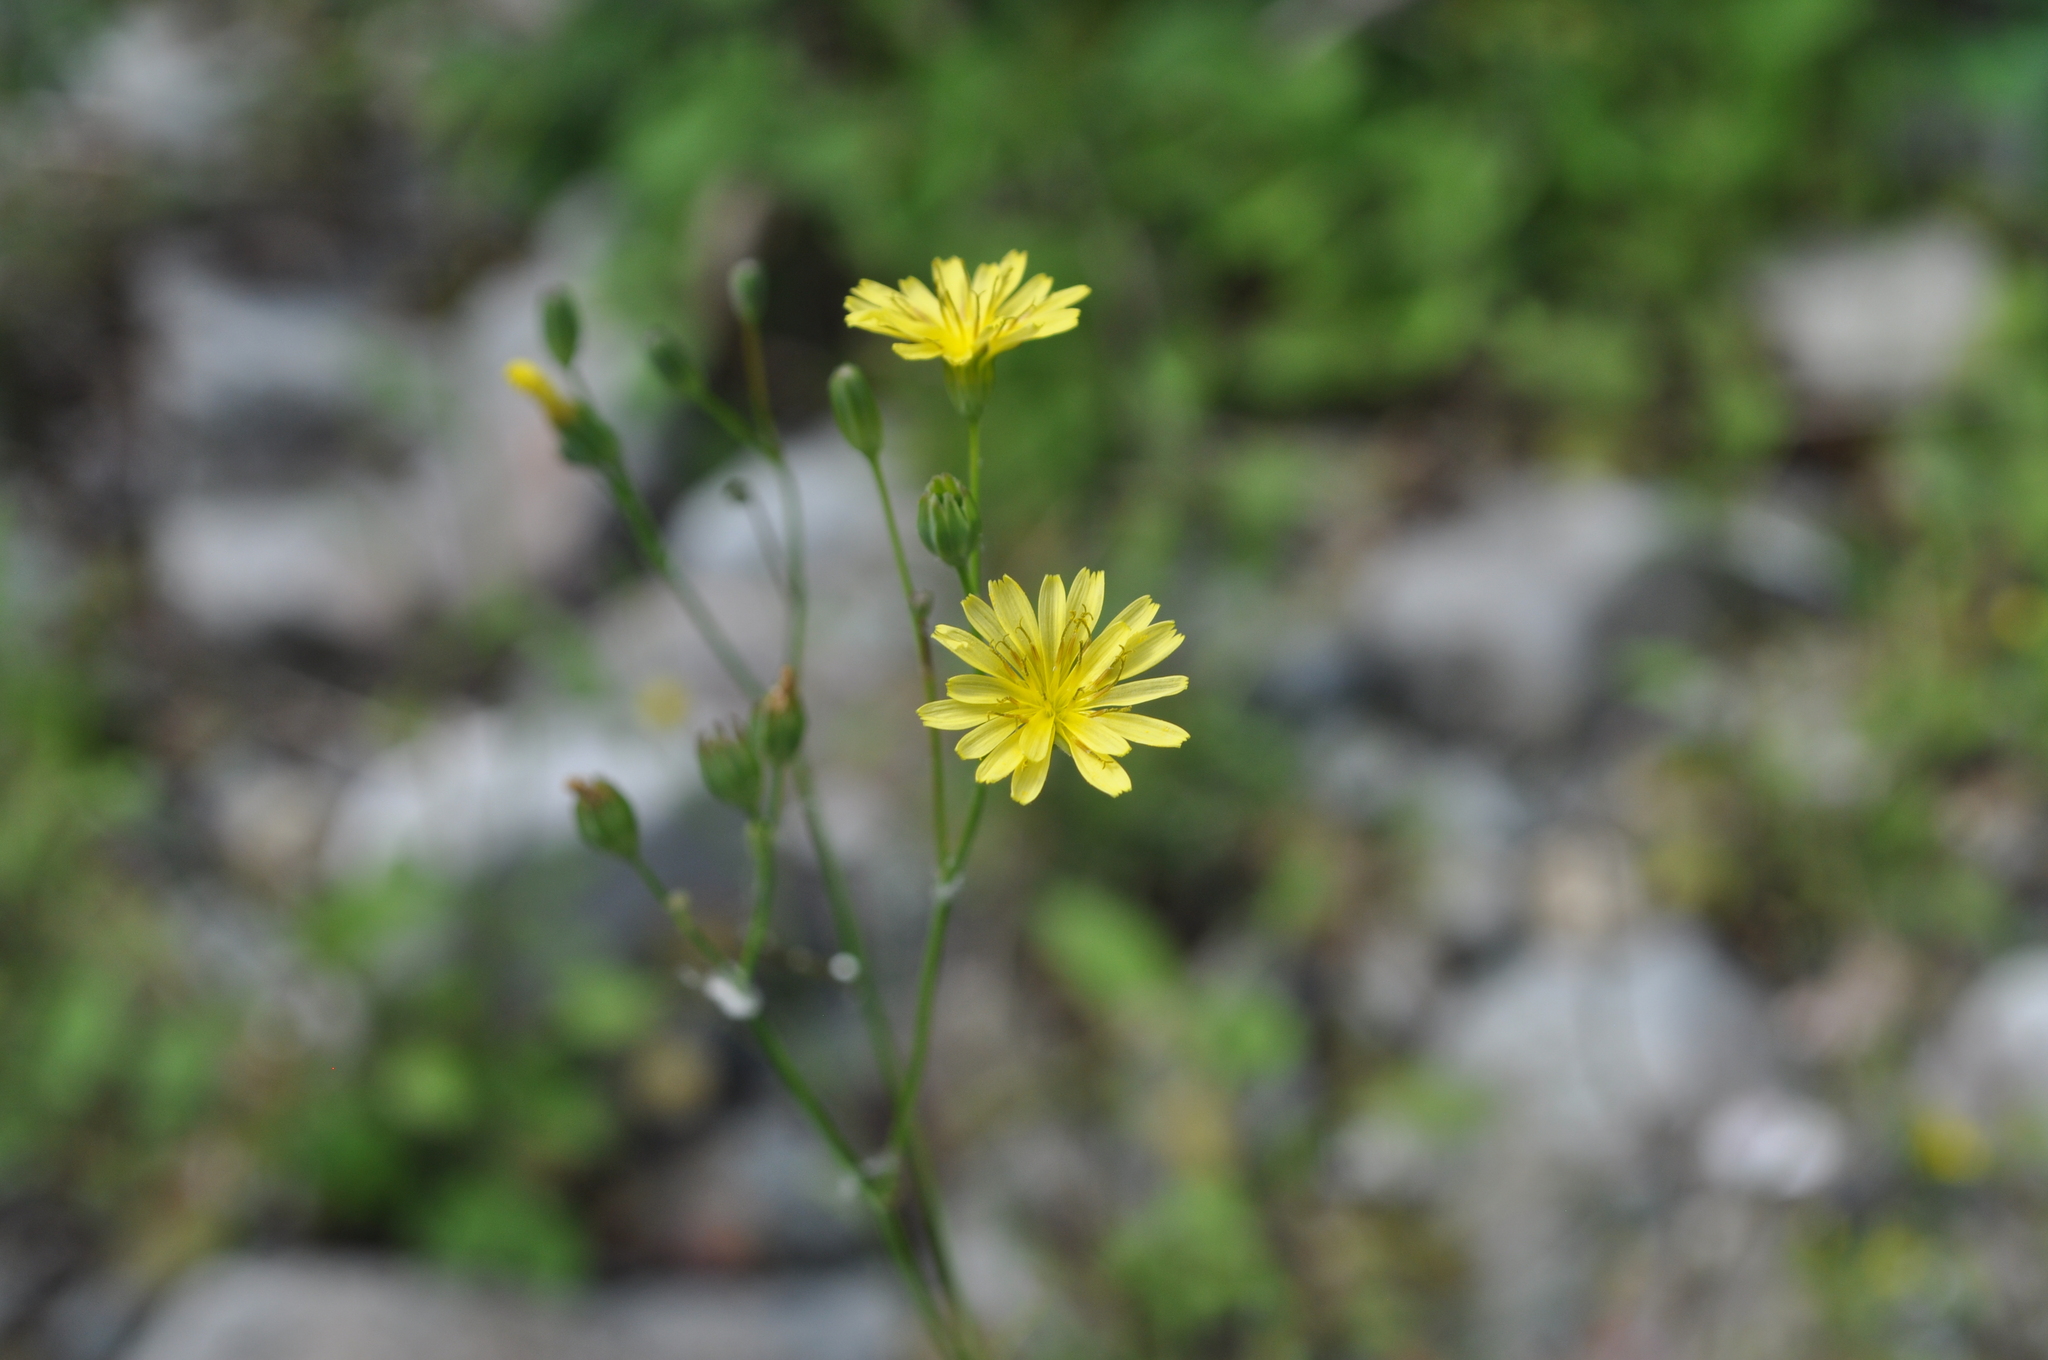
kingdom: Plantae
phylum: Tracheophyta
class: Magnoliopsida
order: Asterales
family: Asteraceae
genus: Lapsana
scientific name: Lapsana communis
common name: Nipplewort
